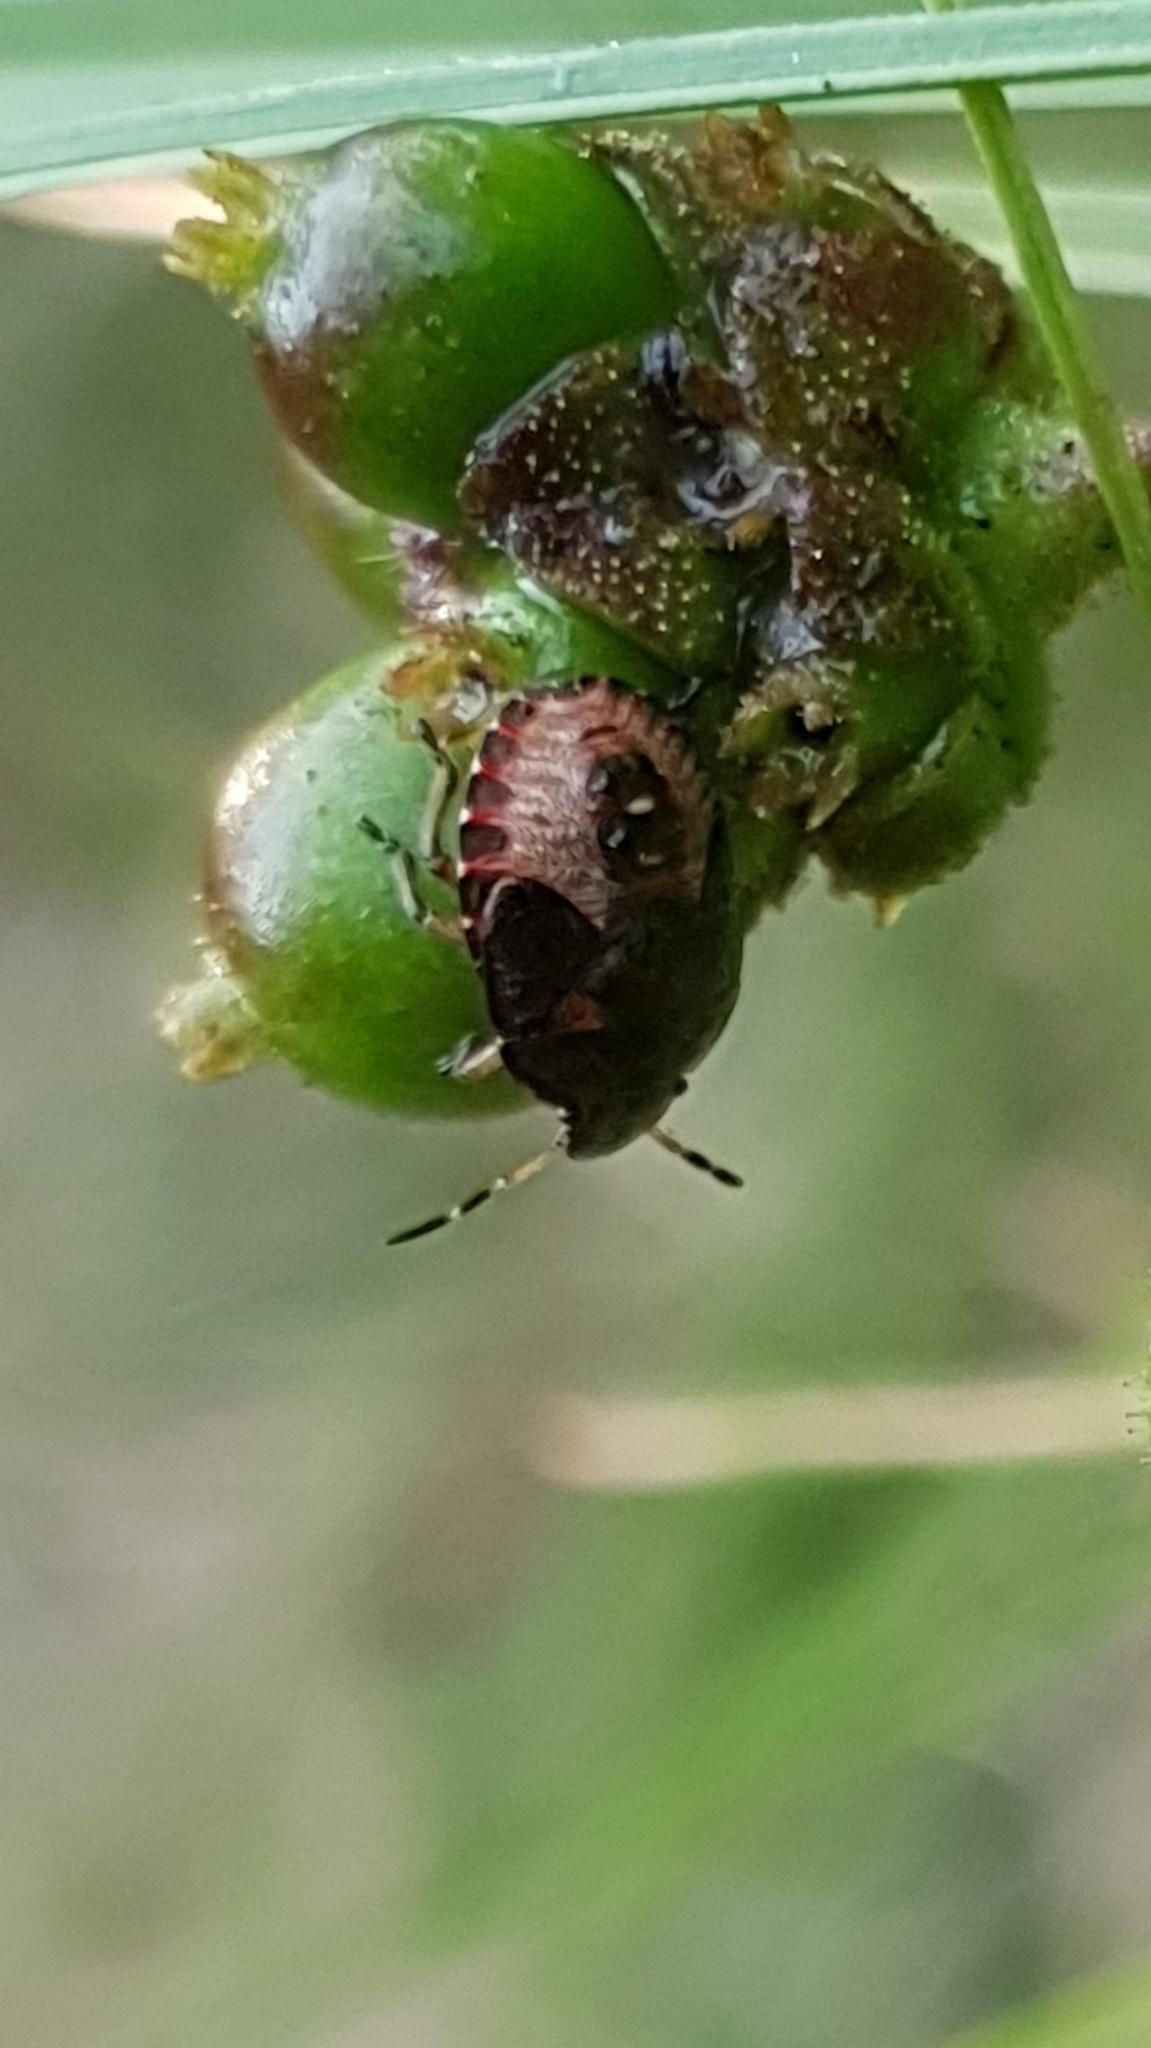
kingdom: Animalia
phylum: Arthropoda
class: Insecta
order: Hemiptera
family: Pentatomidae
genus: Holcostethus
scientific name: Holcostethus strictus
